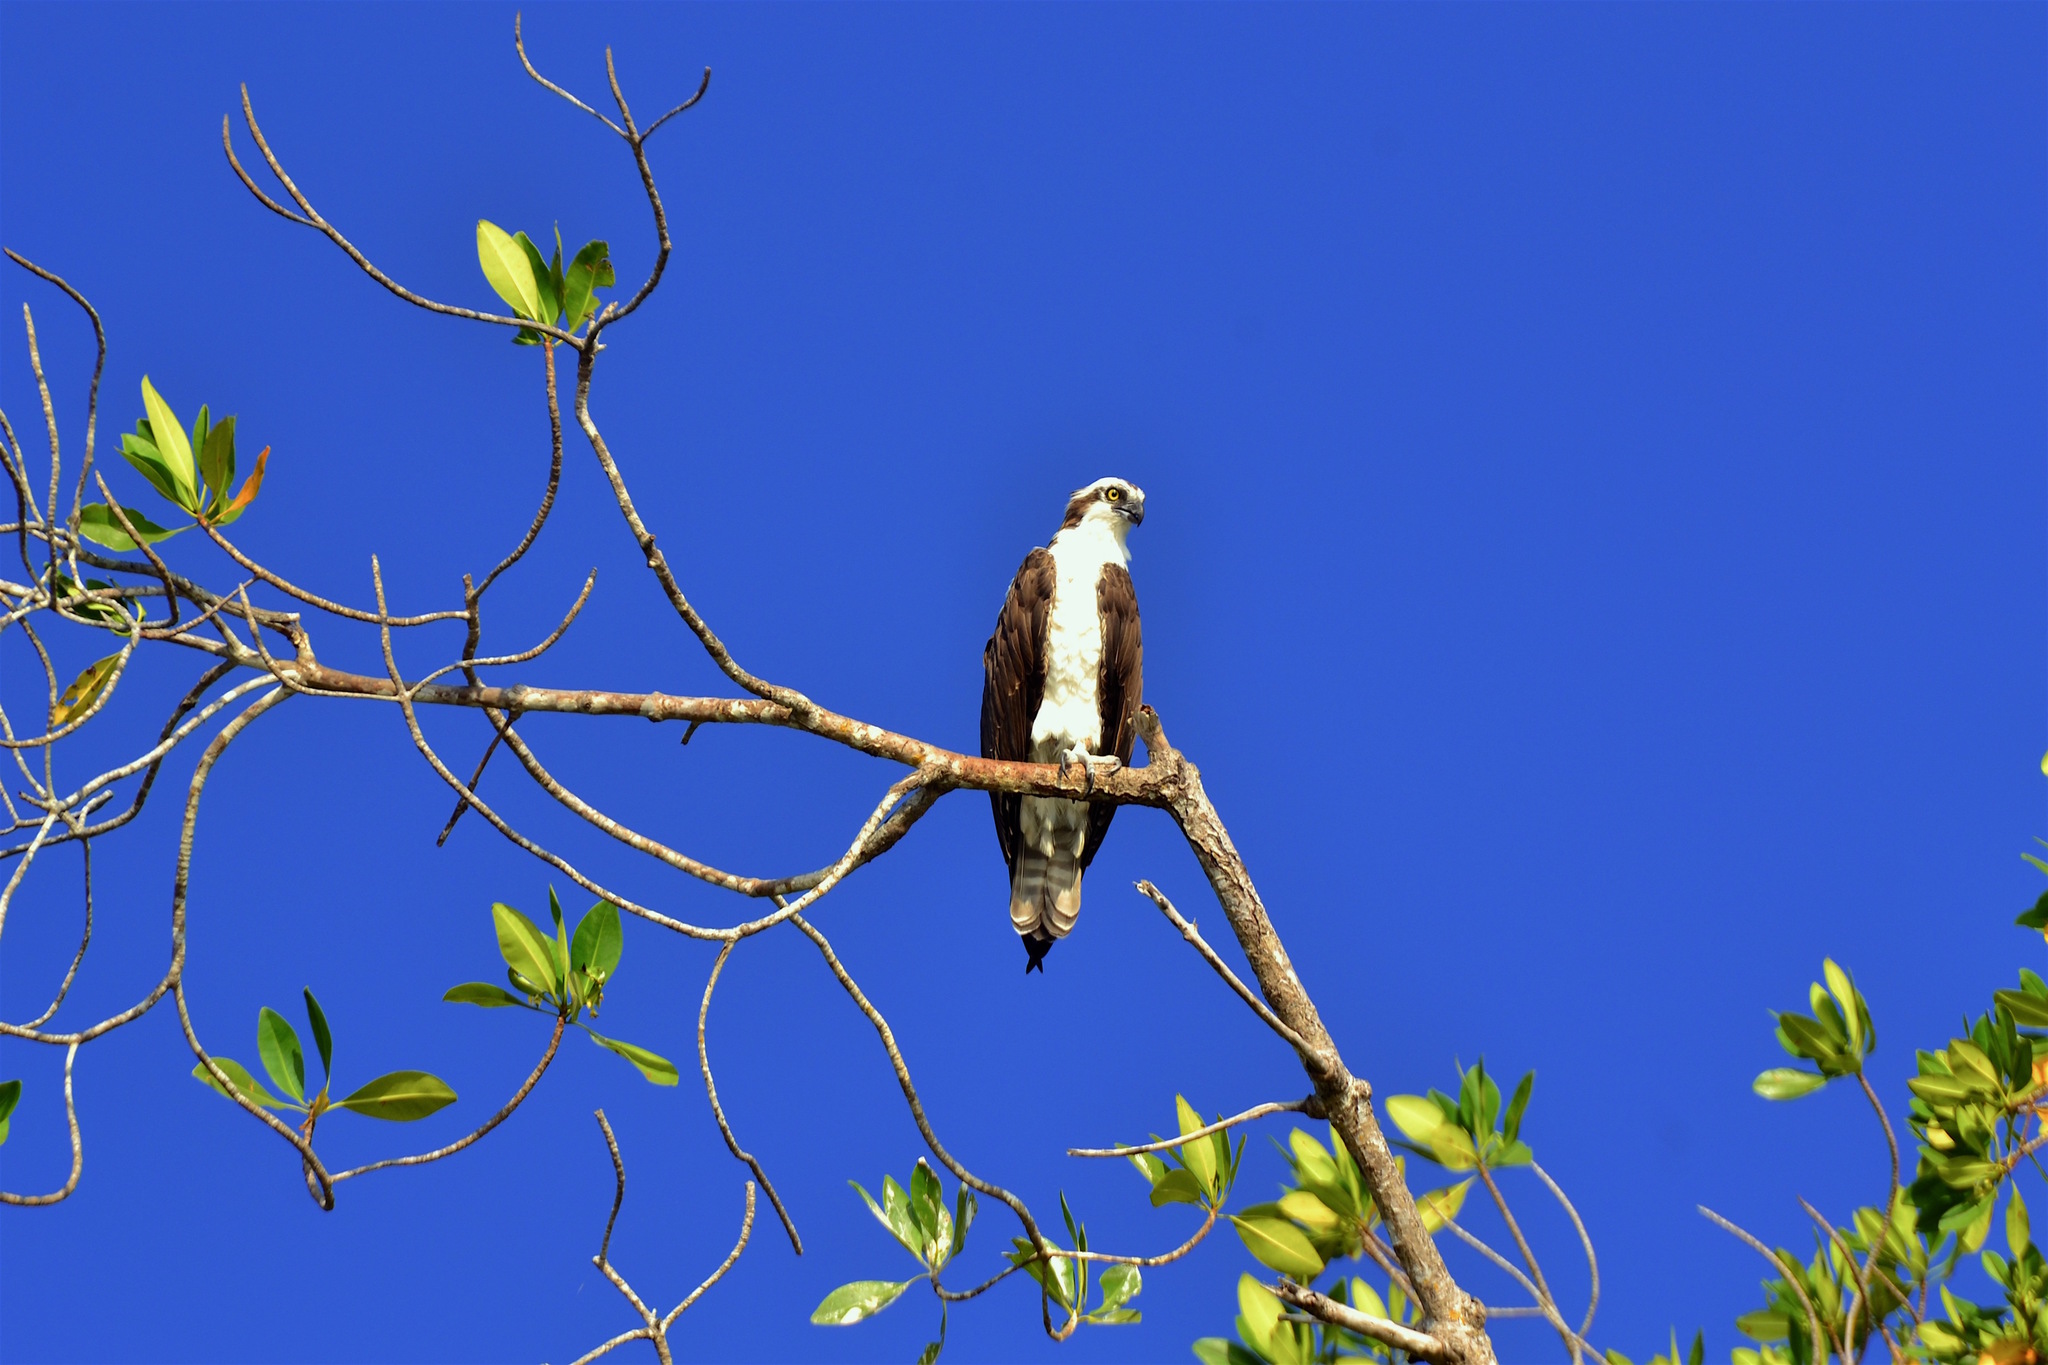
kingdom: Animalia
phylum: Chordata
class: Aves
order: Accipitriformes
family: Pandionidae
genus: Pandion
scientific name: Pandion haliaetus
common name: Osprey
